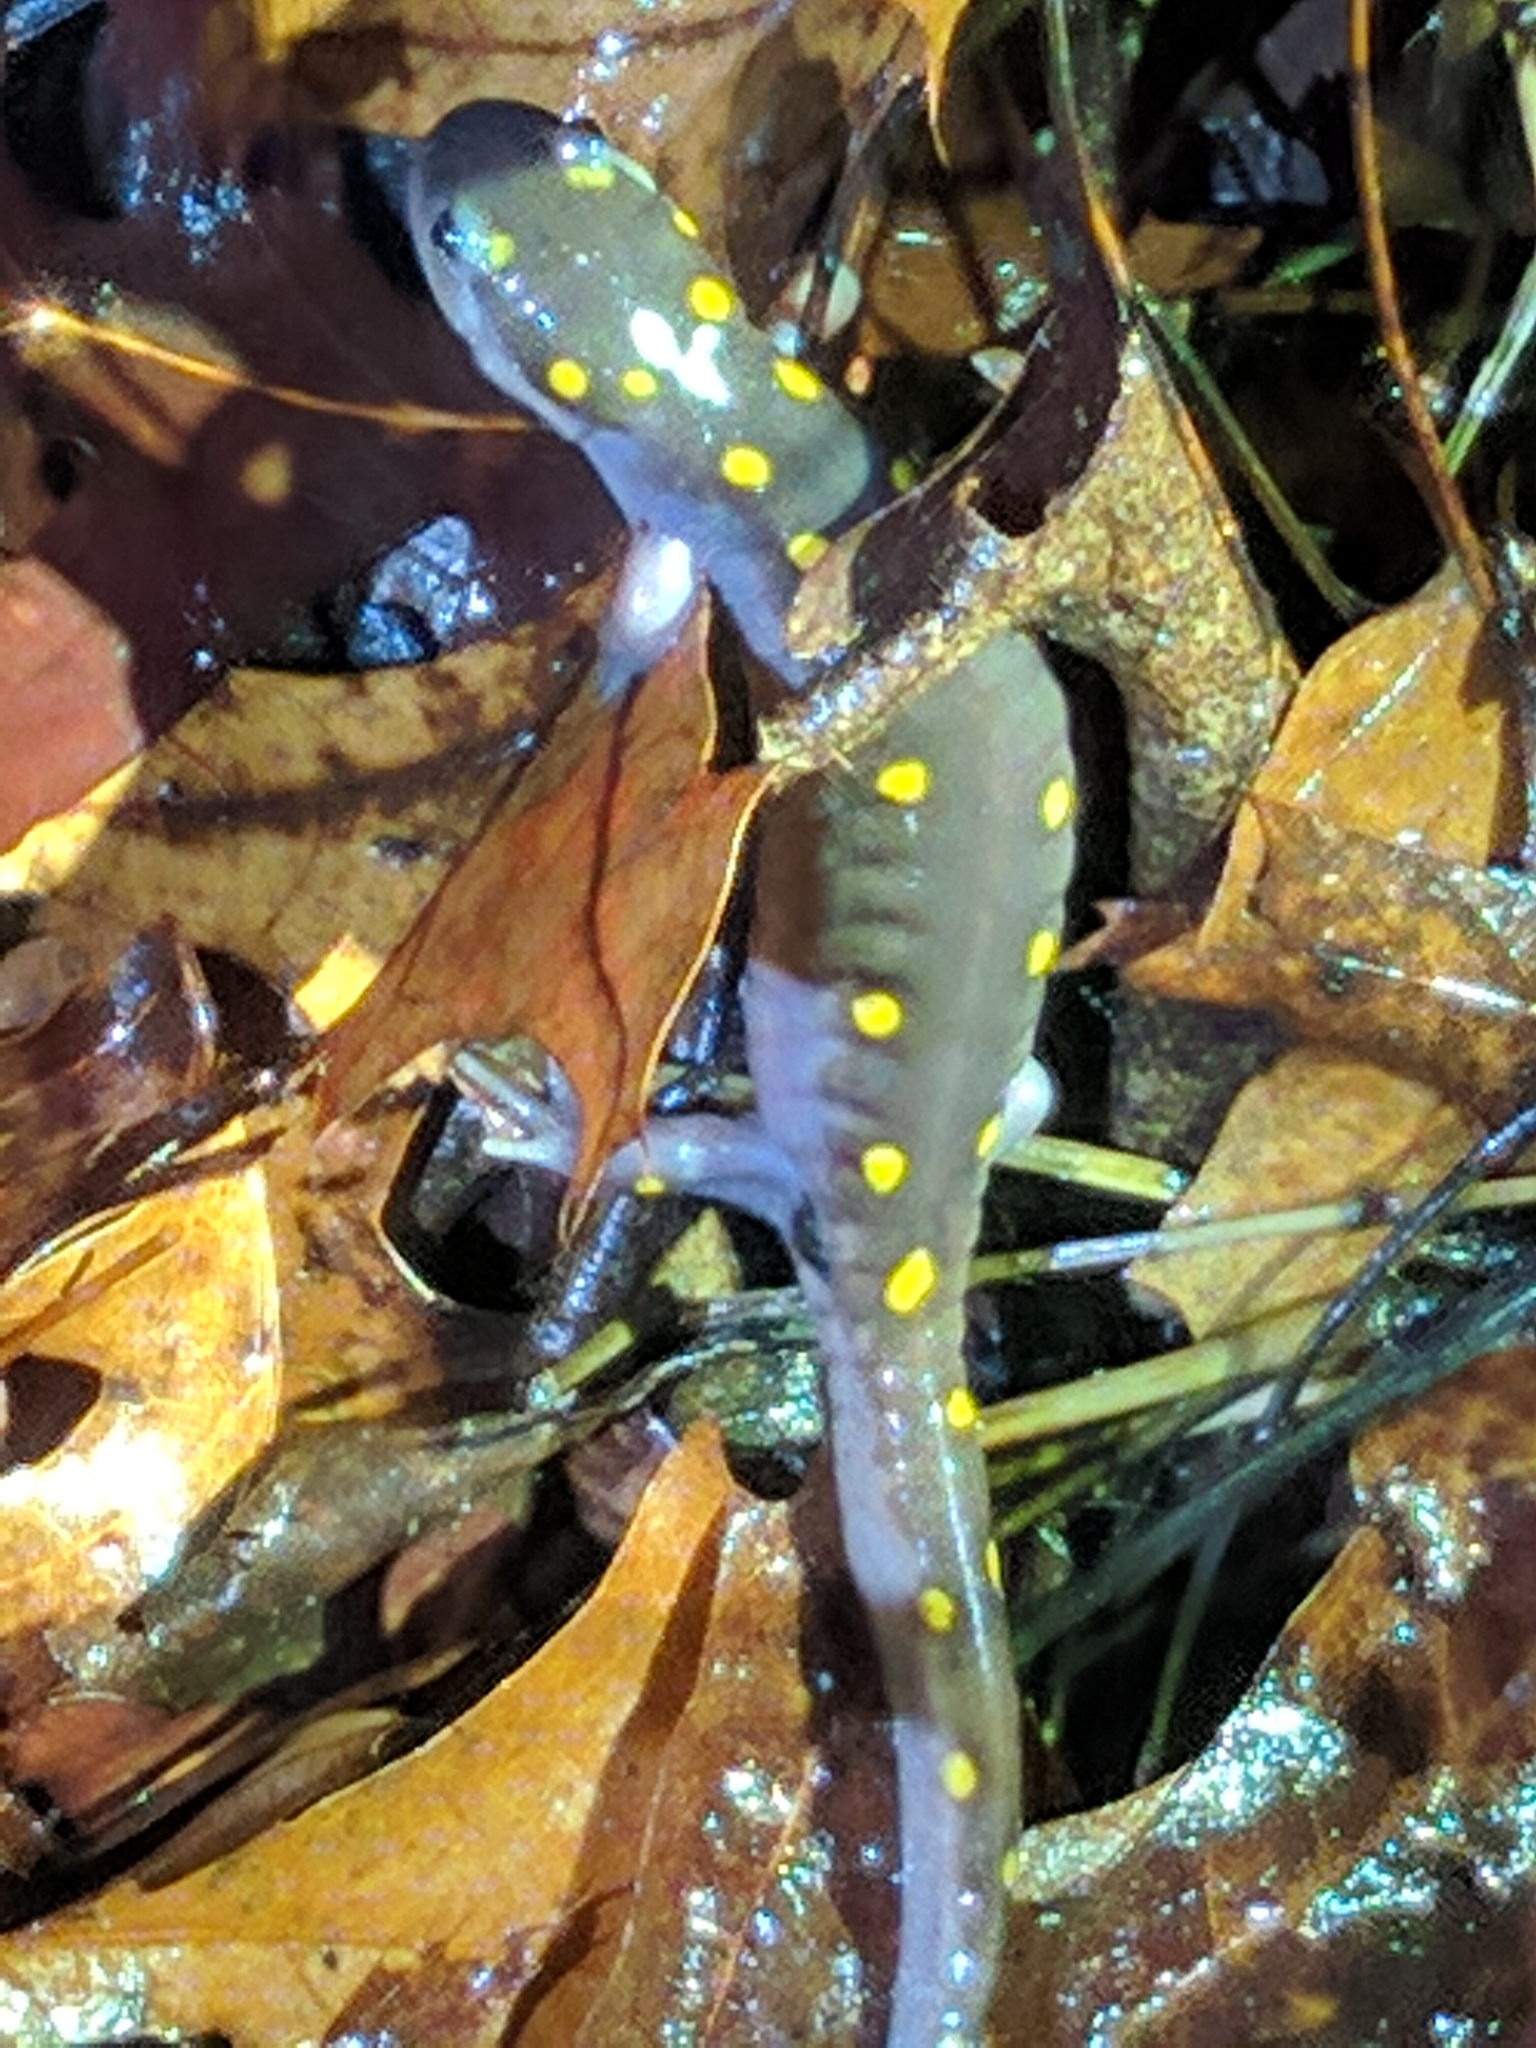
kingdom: Animalia
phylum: Chordata
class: Amphibia
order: Caudata
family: Ambystomatidae
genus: Ambystoma
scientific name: Ambystoma maculatum
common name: Spotted salamander
